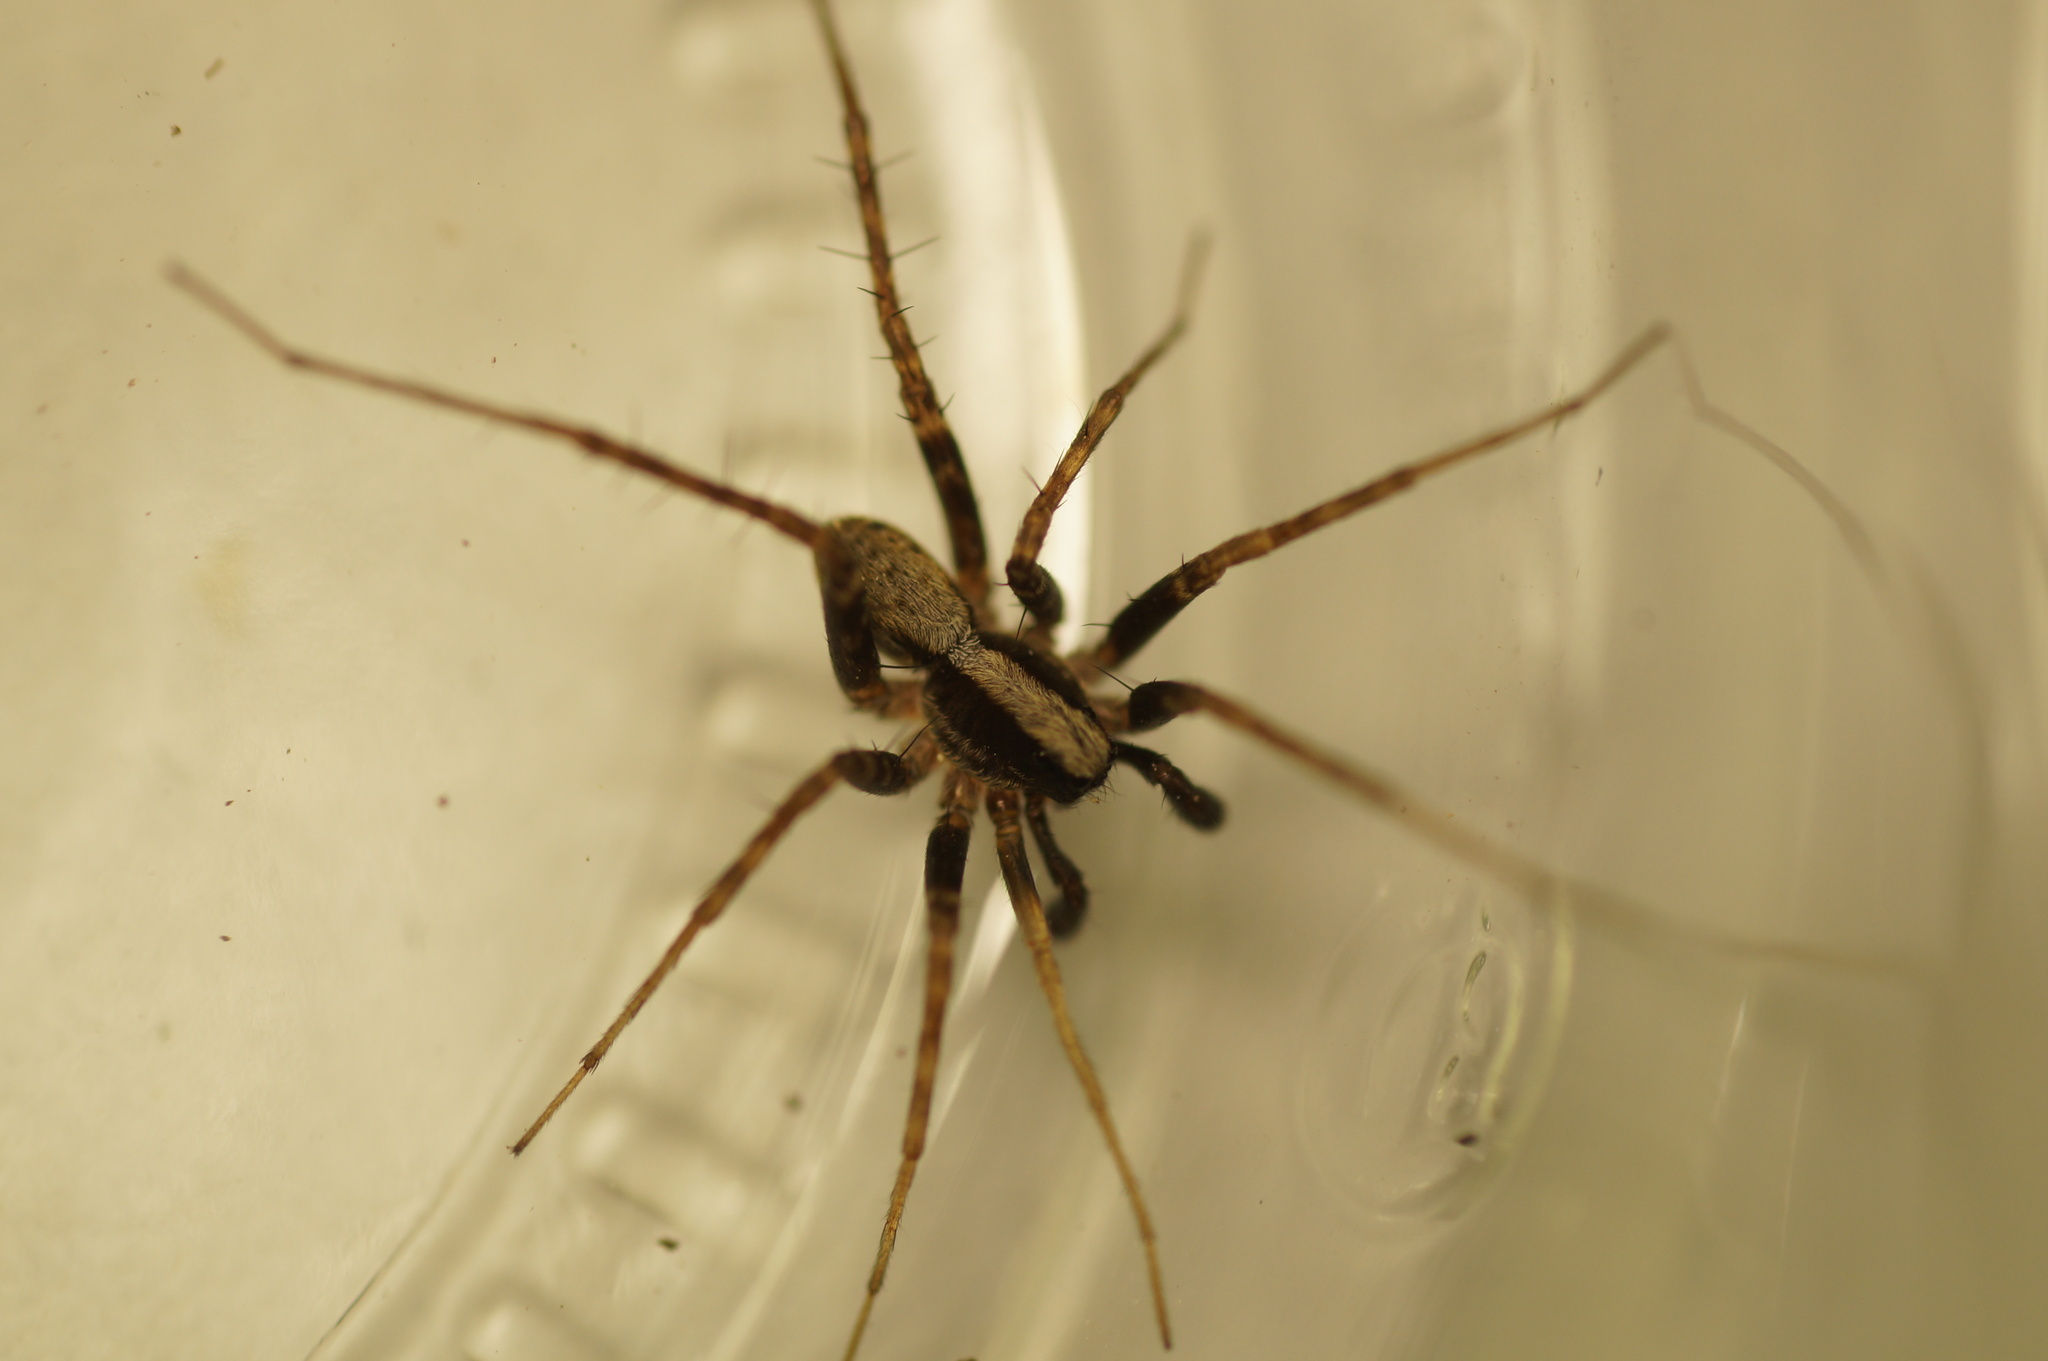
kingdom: Animalia
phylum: Arthropoda
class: Arachnida
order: Araneae
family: Lycosidae
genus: Pardosa
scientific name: Pardosa
